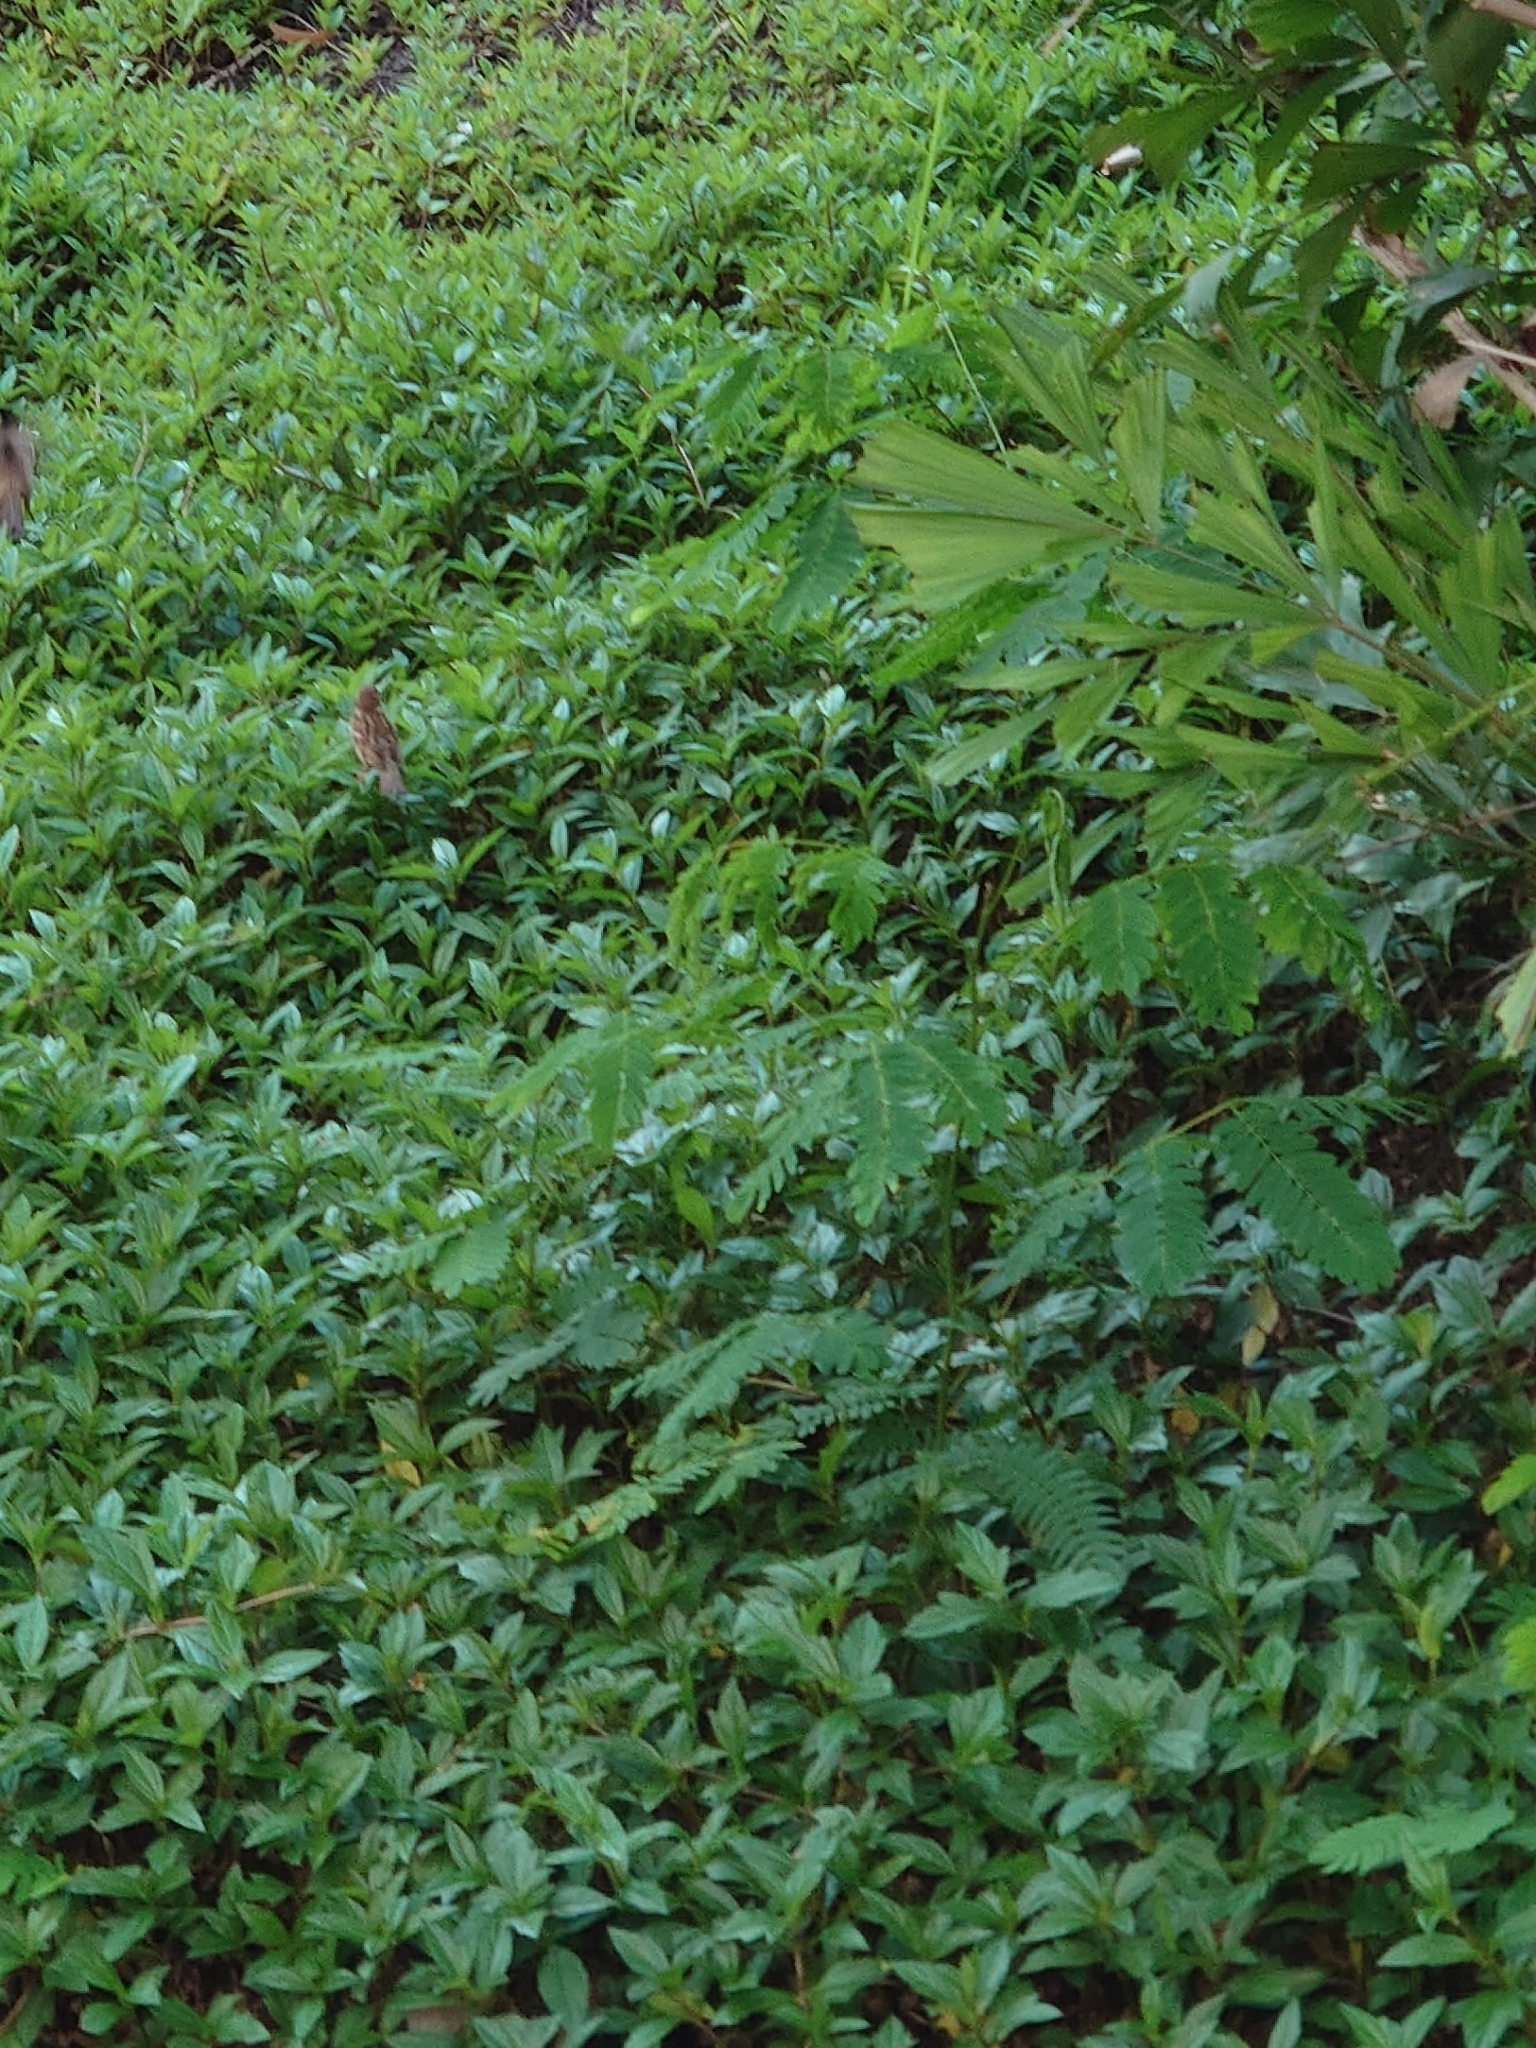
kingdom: Animalia
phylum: Chordata
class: Aves
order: Passeriformes
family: Passeridae
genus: Passer
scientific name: Passer montanus
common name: Eurasian tree sparrow
